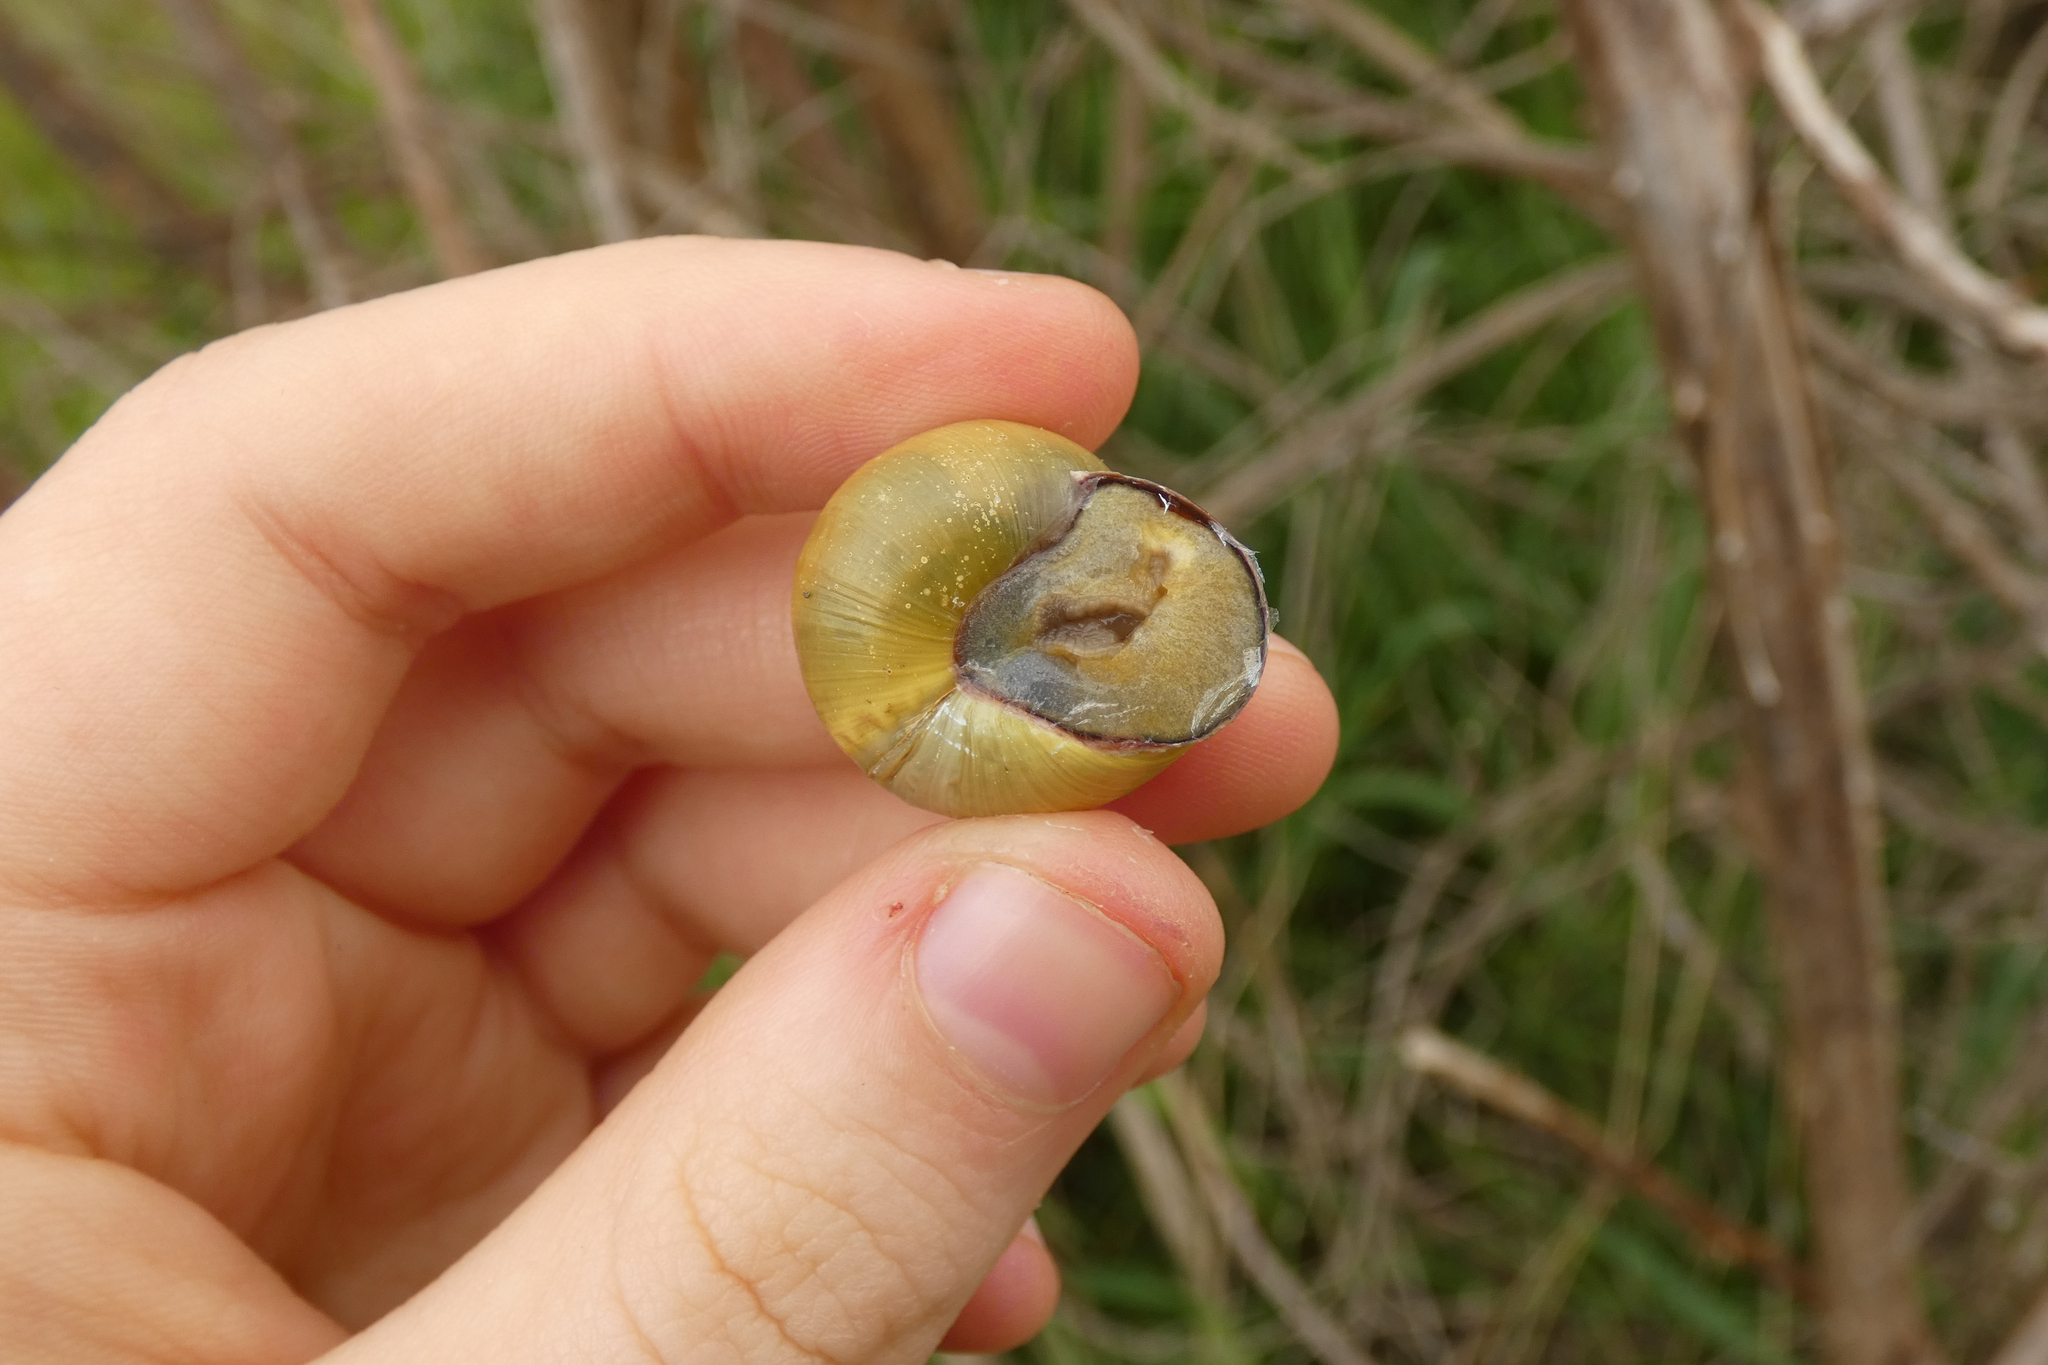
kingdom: Animalia
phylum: Mollusca
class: Gastropoda
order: Stylommatophora
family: Helicidae
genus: Cepaea
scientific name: Cepaea nemoralis
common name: Grovesnail
